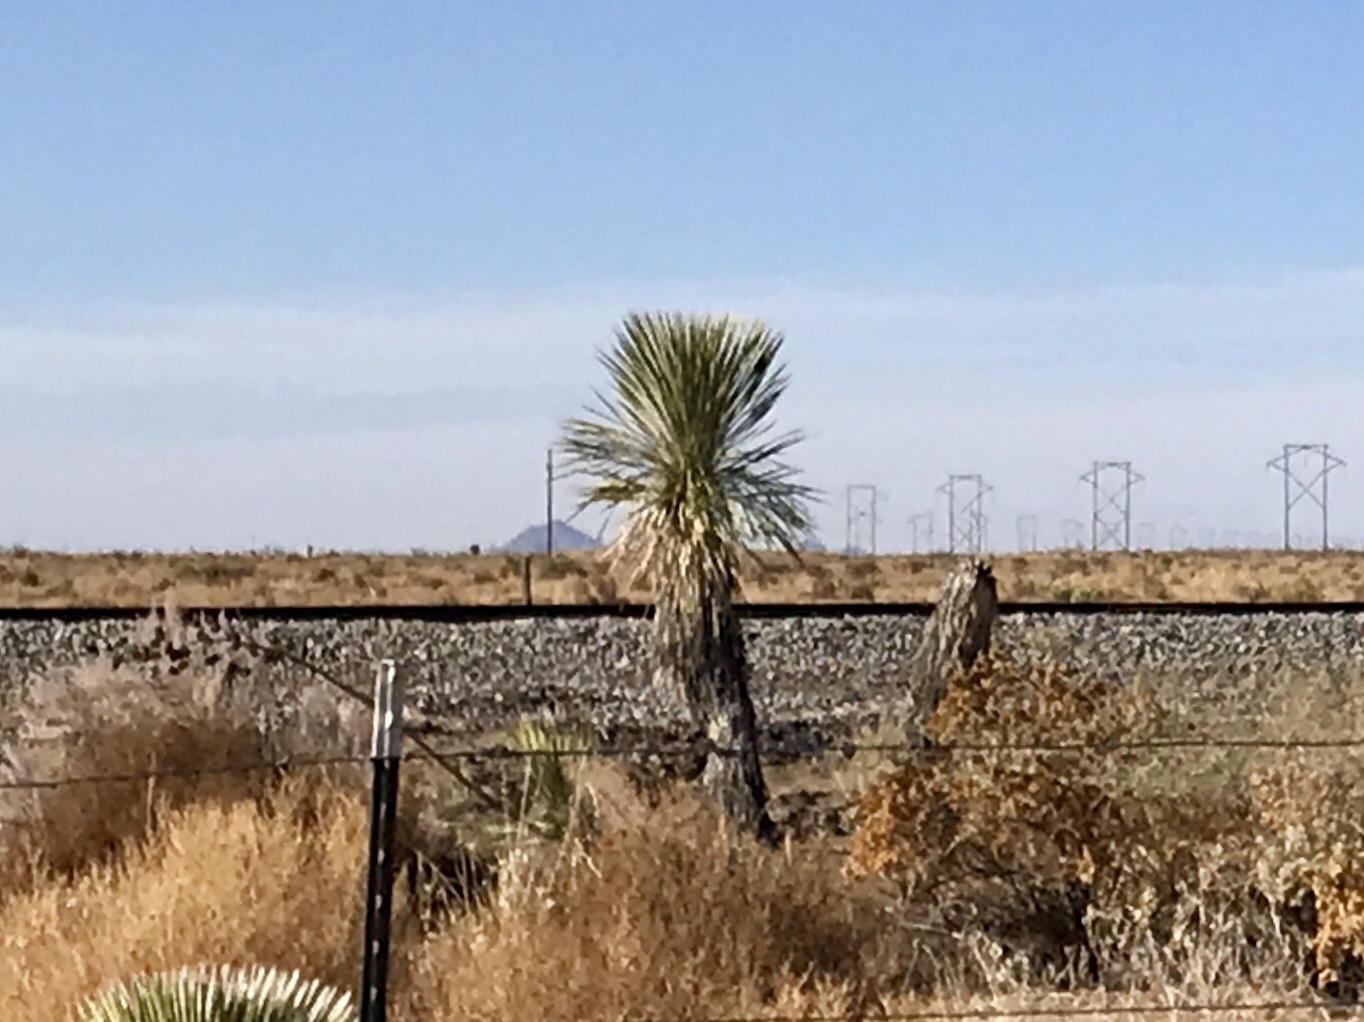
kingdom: Plantae
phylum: Tracheophyta
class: Liliopsida
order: Asparagales
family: Asparagaceae
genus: Yucca
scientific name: Yucca elata
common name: Palmella
